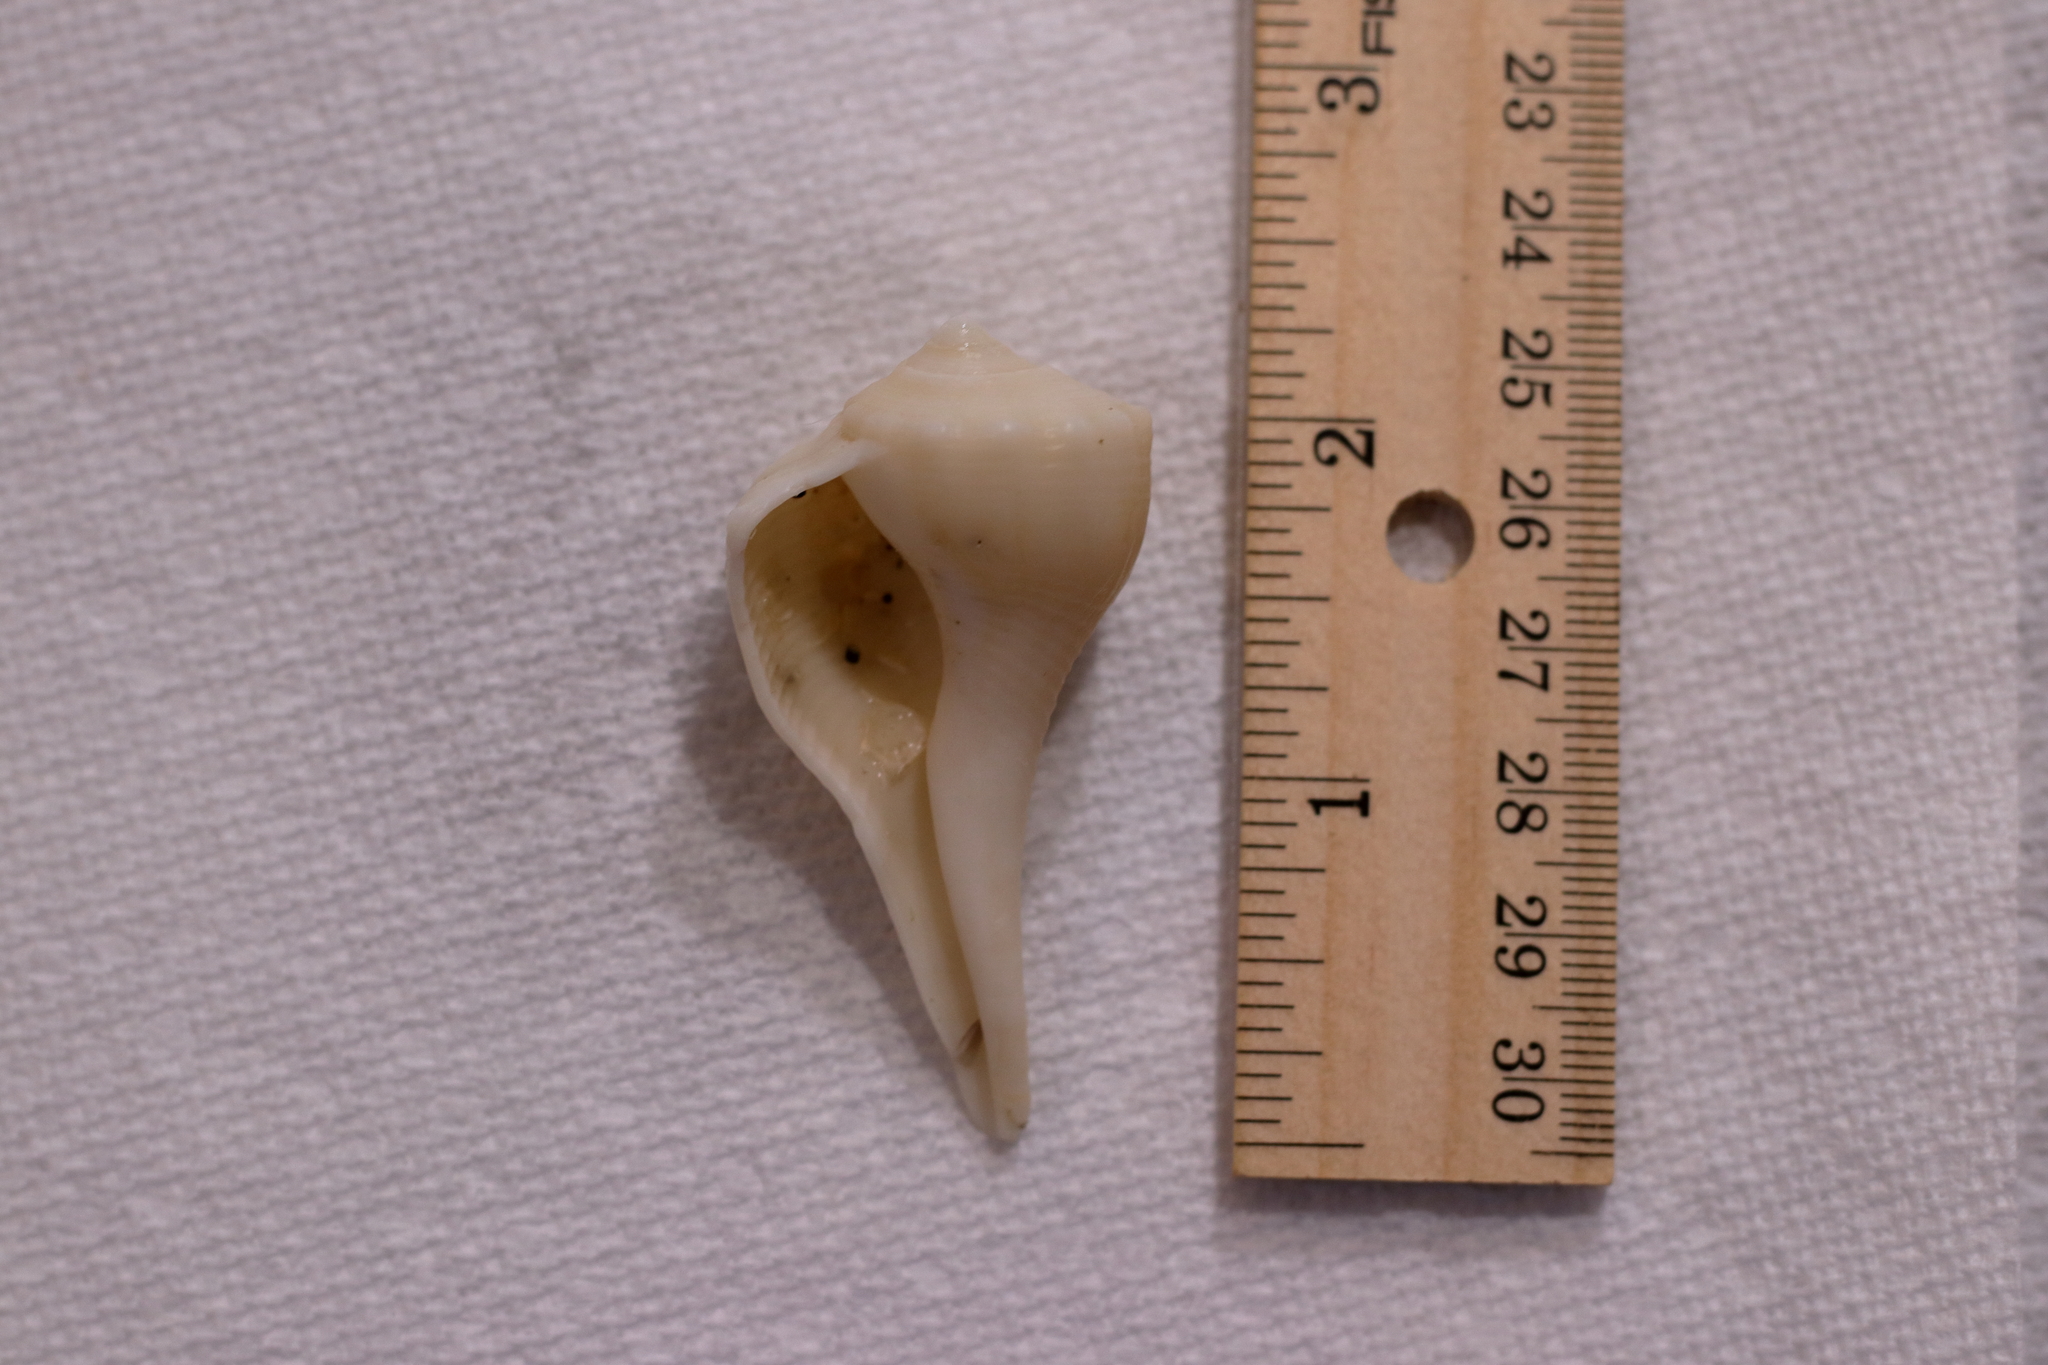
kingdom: Animalia
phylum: Mollusca
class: Gastropoda
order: Neogastropoda
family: Busyconidae
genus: Sinistrofulgur
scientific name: Sinistrofulgur sinistrum
